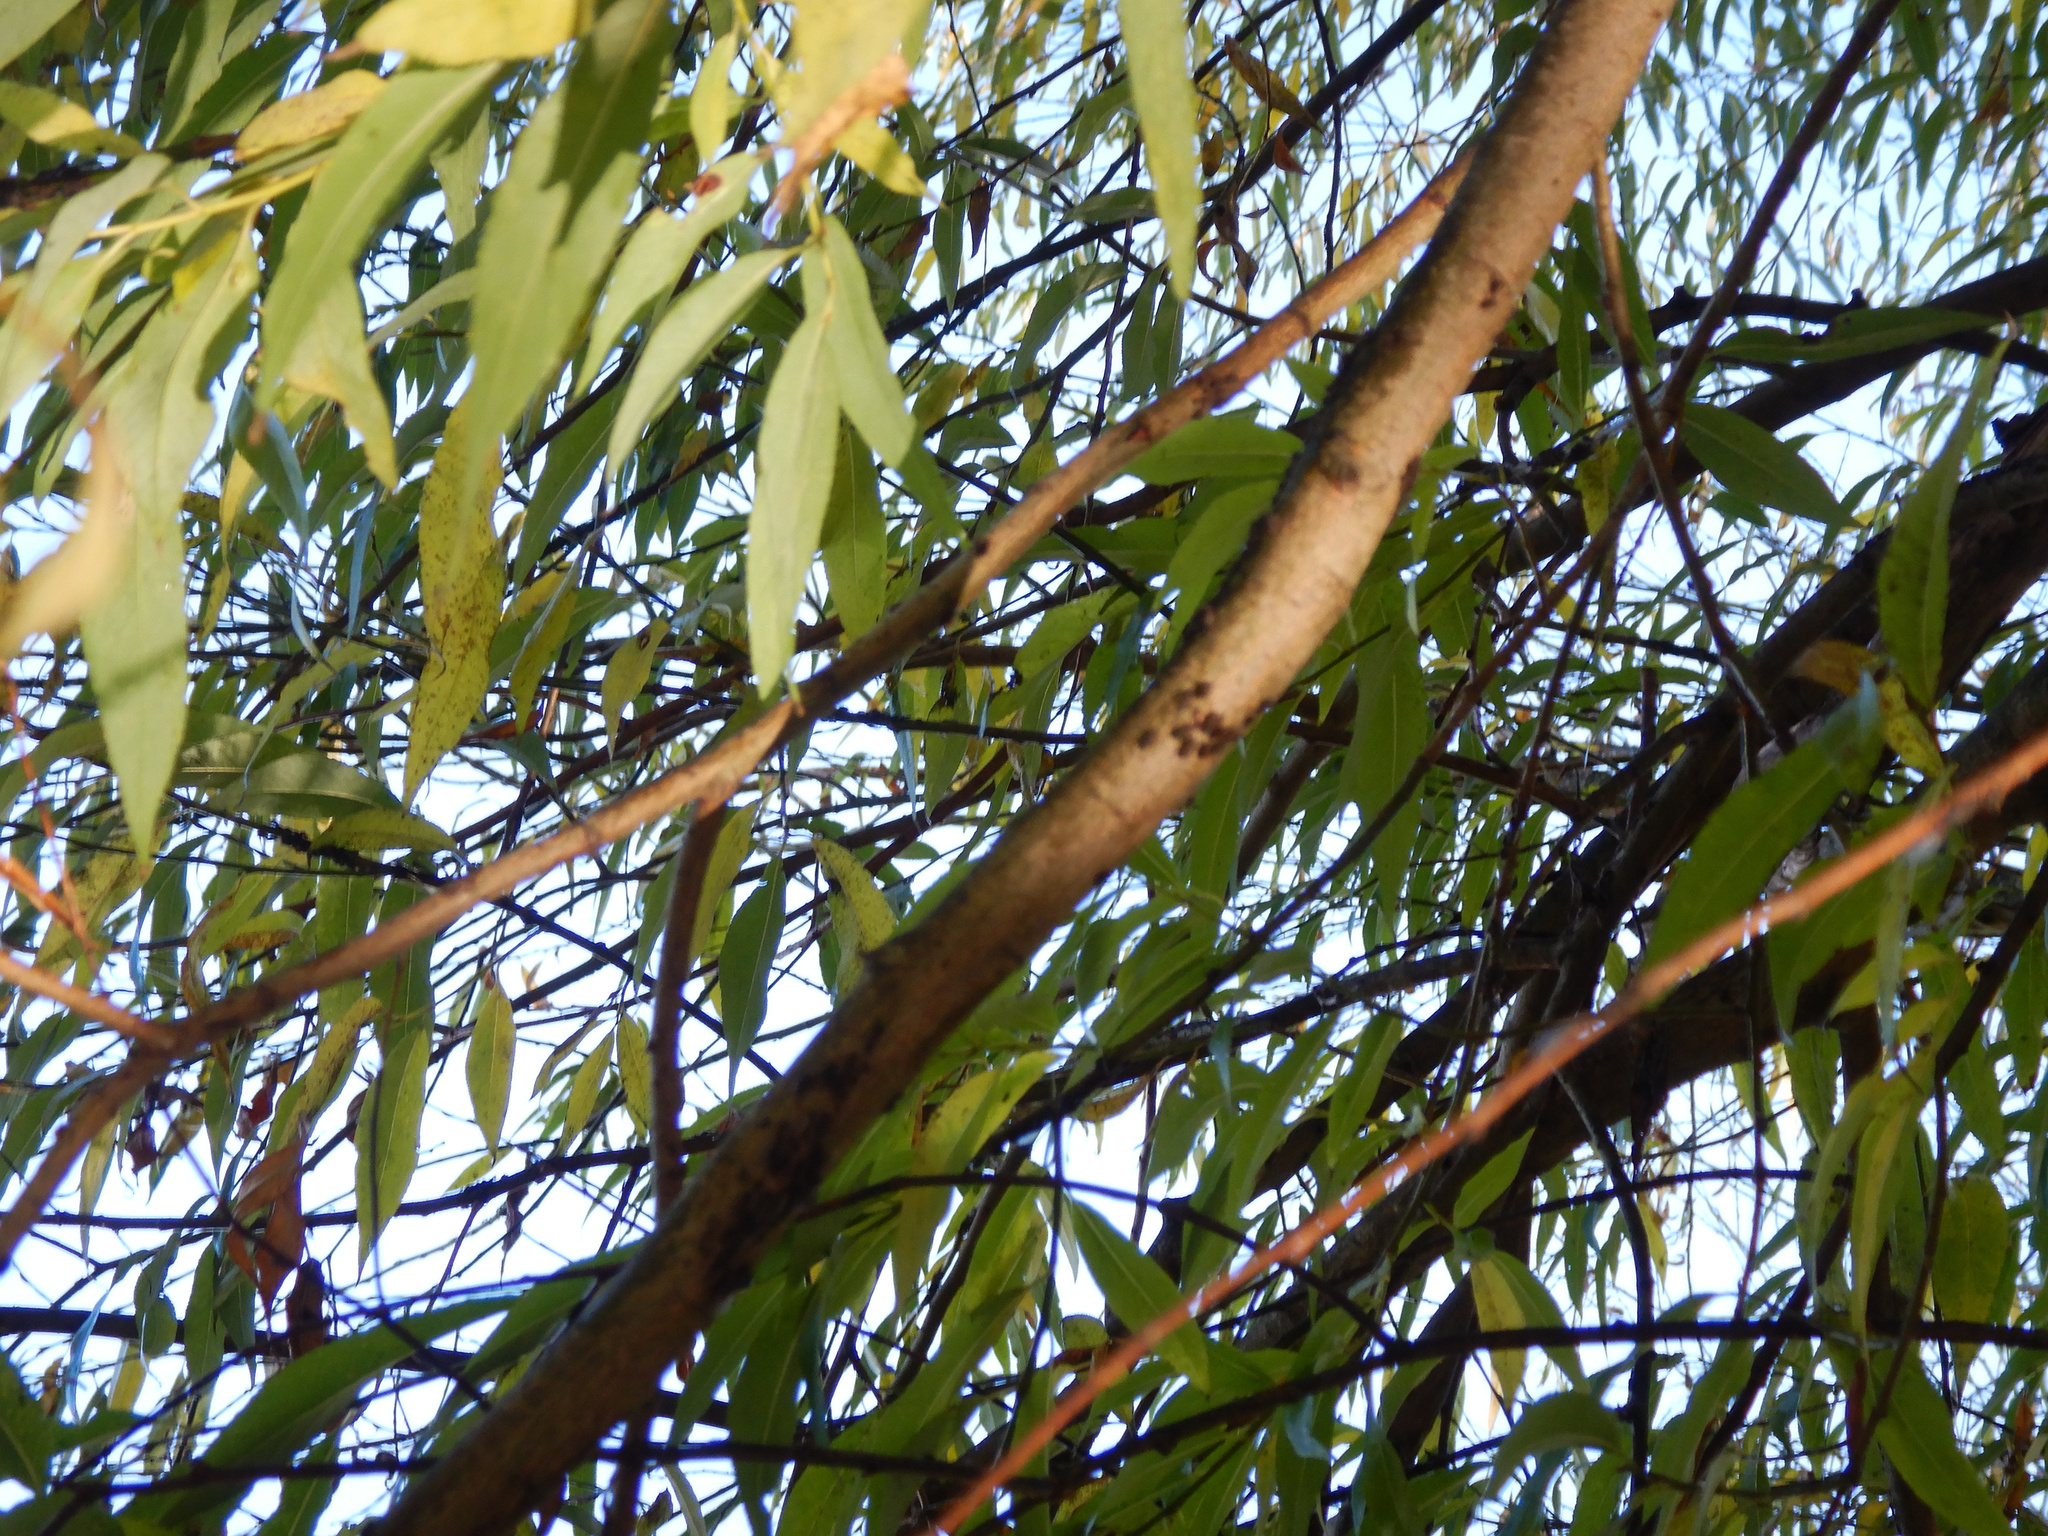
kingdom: Animalia
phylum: Arthropoda
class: Insecta
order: Hemiptera
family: Aphididae
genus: Tuberolachnus
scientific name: Tuberolachnus salignus
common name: Giant willow aphid
